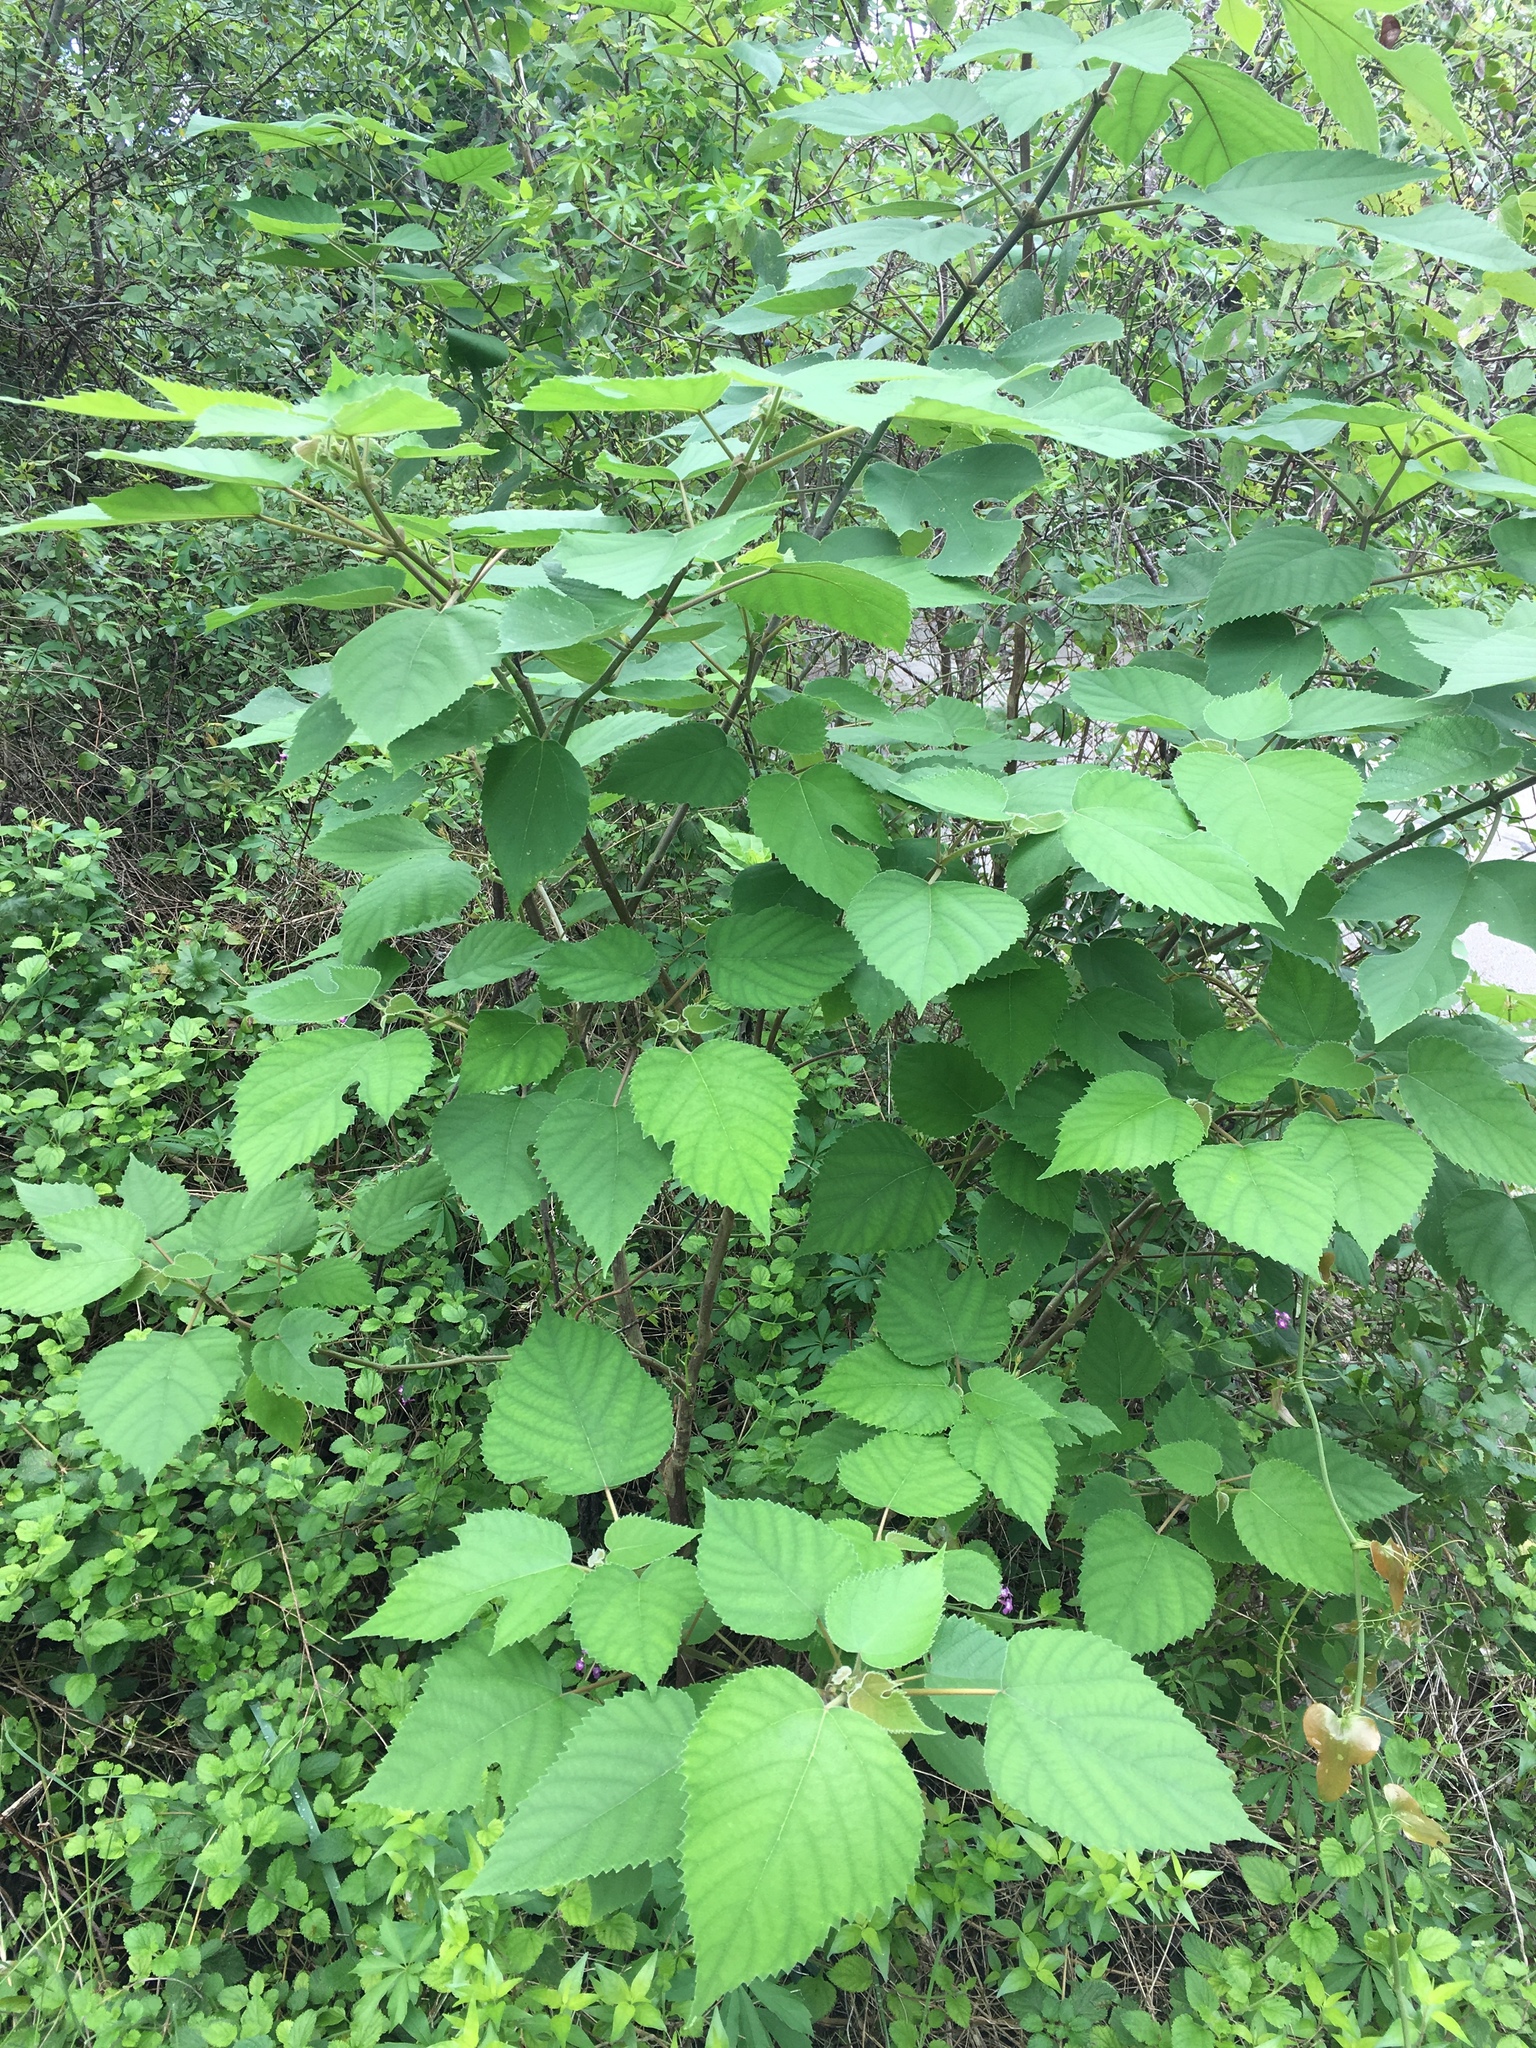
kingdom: Plantae
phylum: Tracheophyta
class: Magnoliopsida
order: Rosales
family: Moraceae
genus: Morus
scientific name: Morus rubra
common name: Red mulberry
